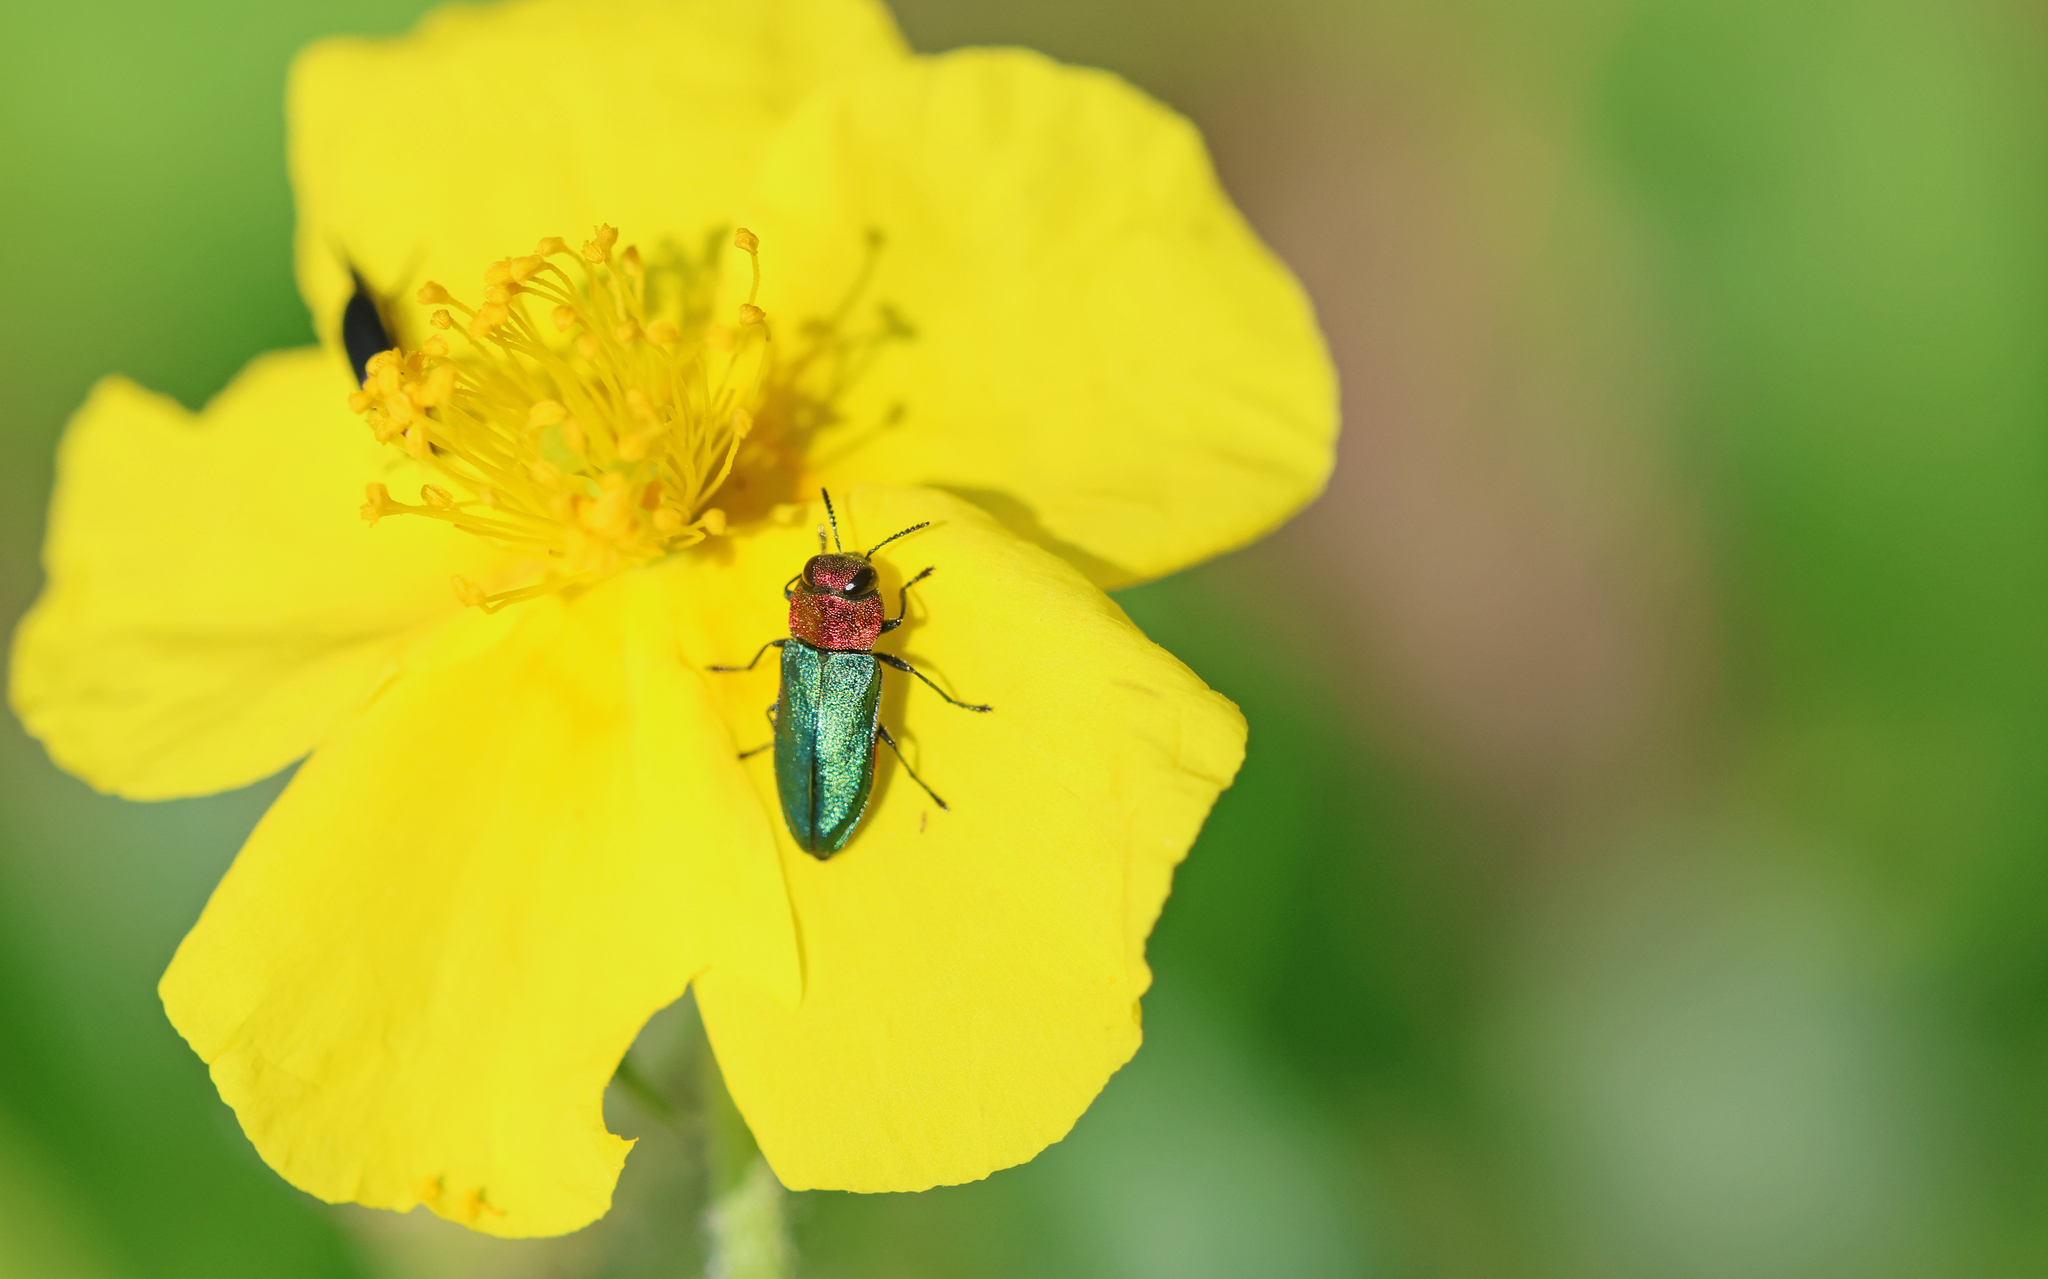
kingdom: Animalia
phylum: Arthropoda
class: Insecta
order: Coleoptera
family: Buprestidae
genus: Anthaxia
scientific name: Anthaxia nitidula
